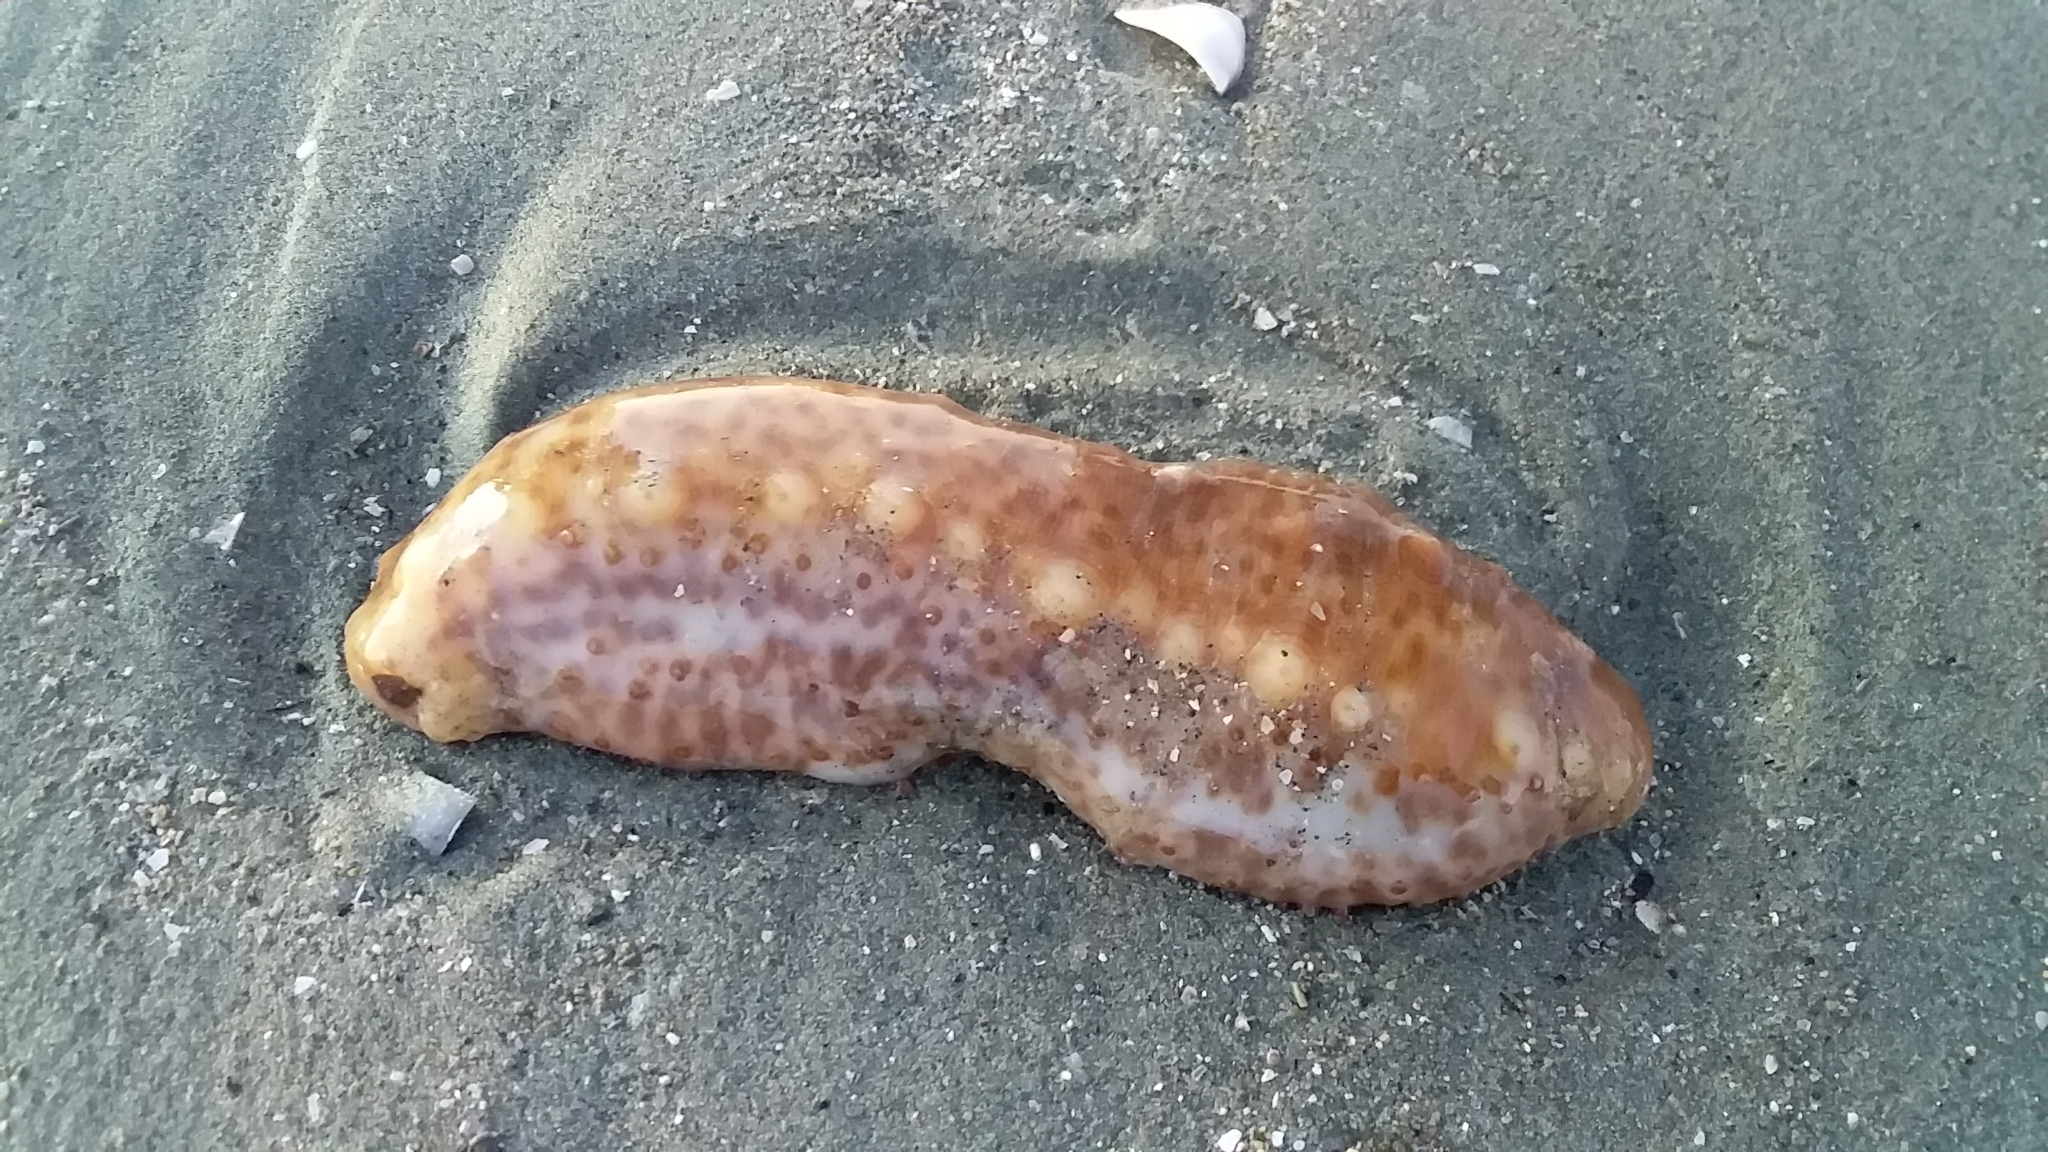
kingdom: Animalia
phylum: Echinodermata
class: Holothuroidea
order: Synallactida
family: Stichopodidae
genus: Australostichopus
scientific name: Australostichopus mollis
